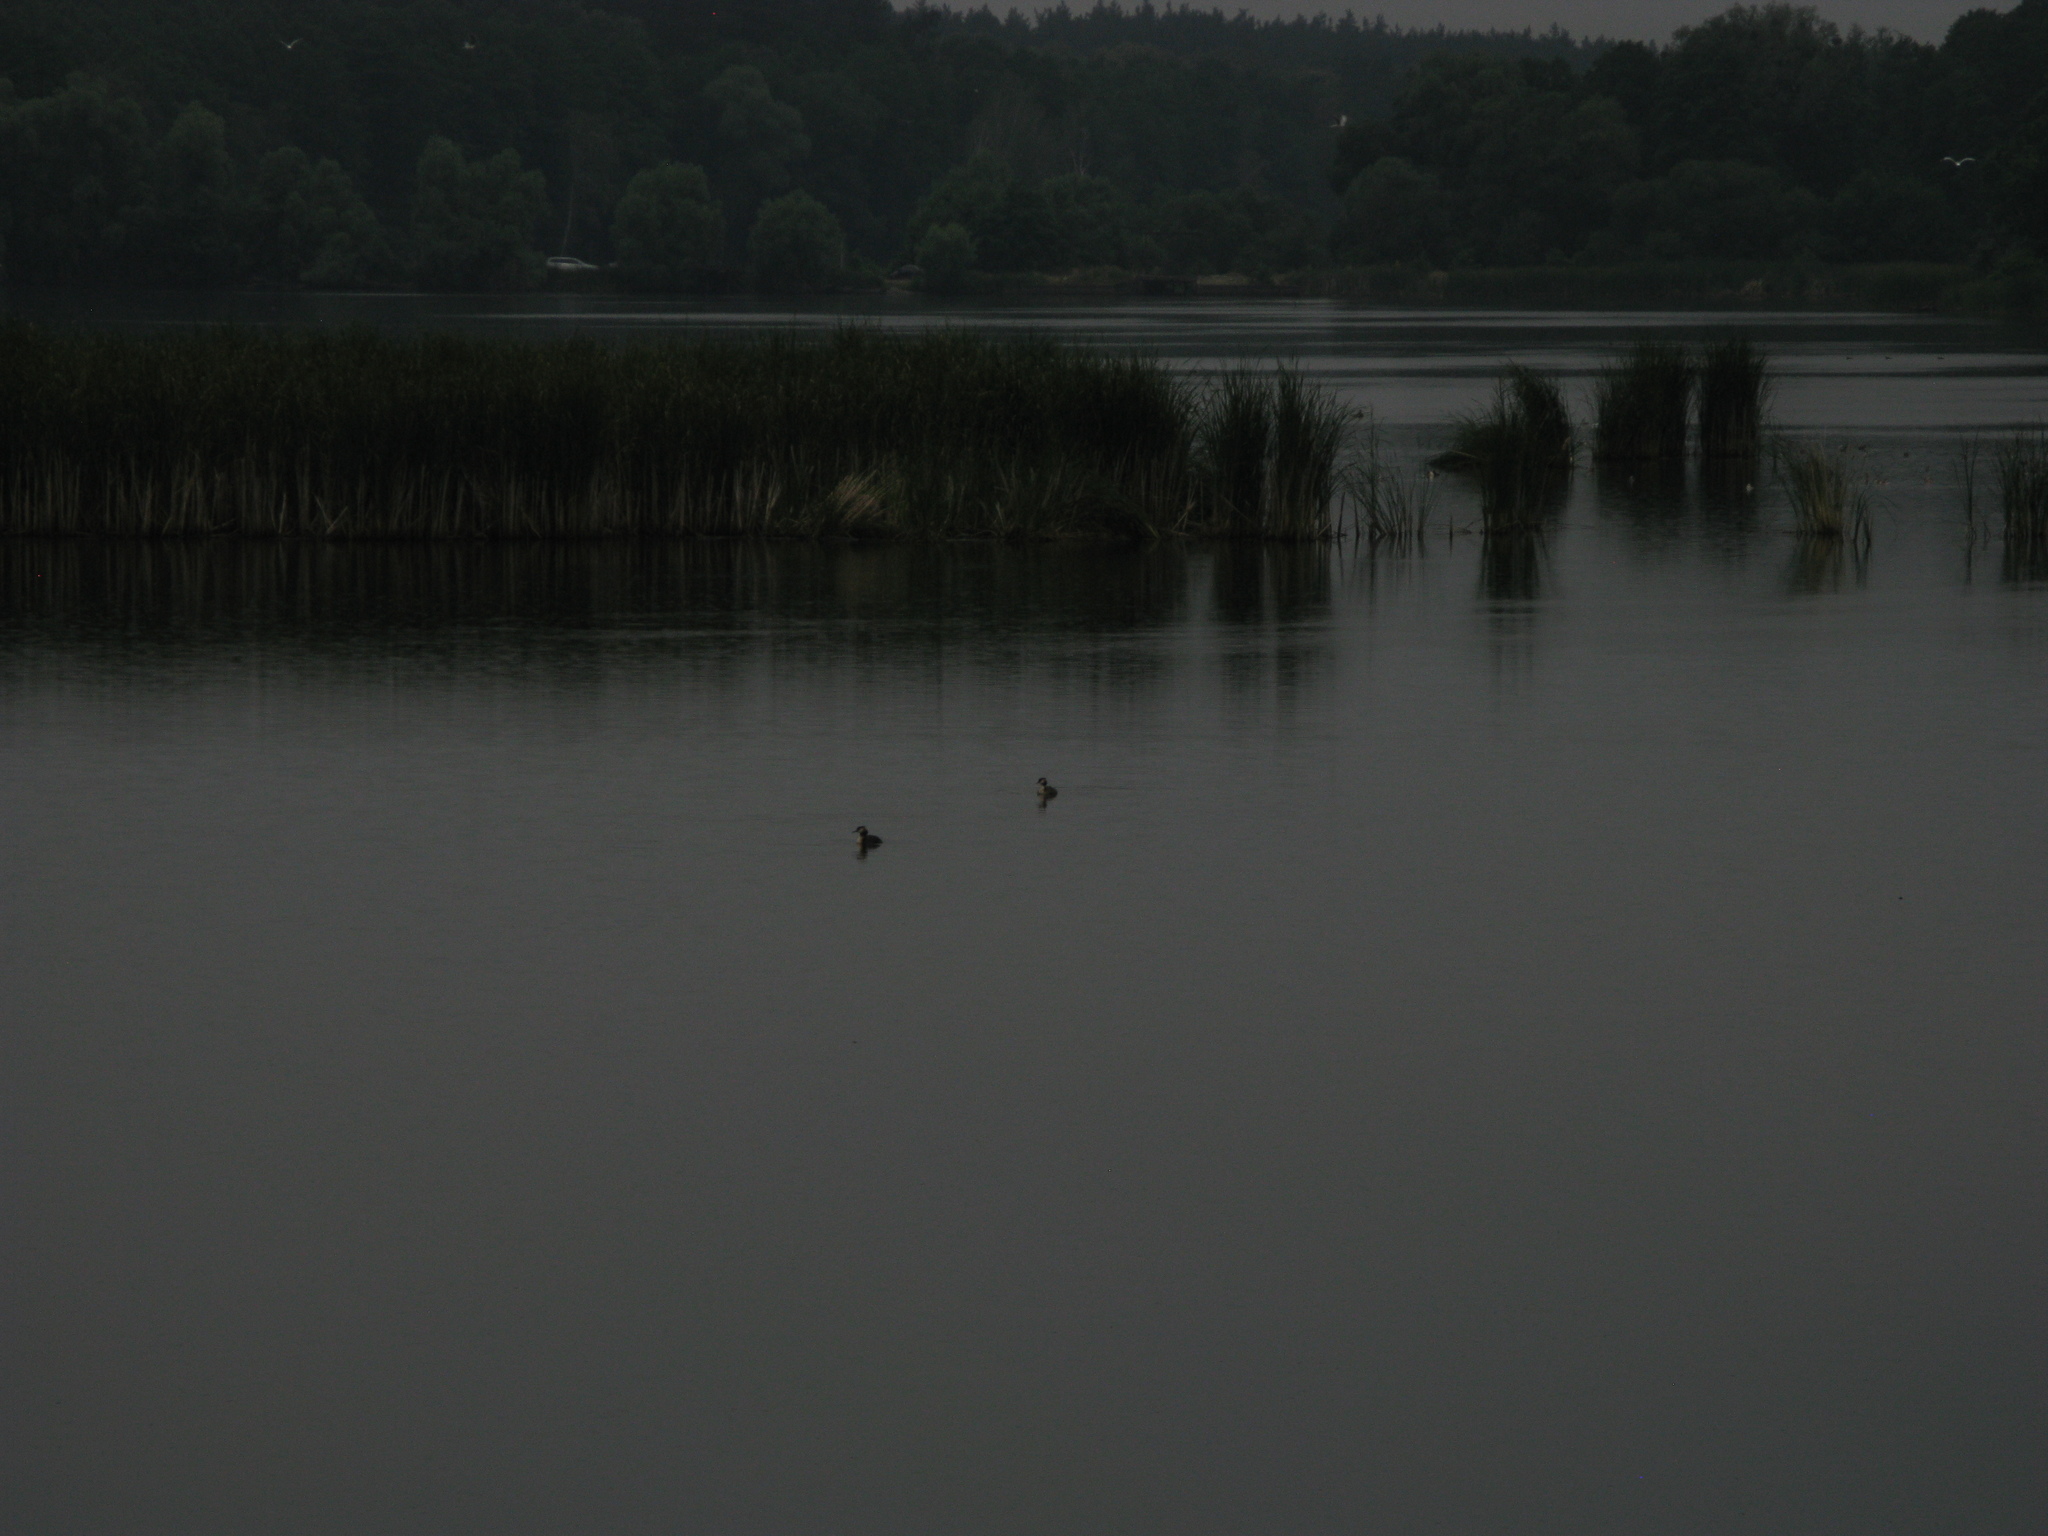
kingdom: Animalia
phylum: Chordata
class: Aves
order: Podicipediformes
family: Podicipedidae
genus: Podiceps
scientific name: Podiceps cristatus
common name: Great crested grebe
